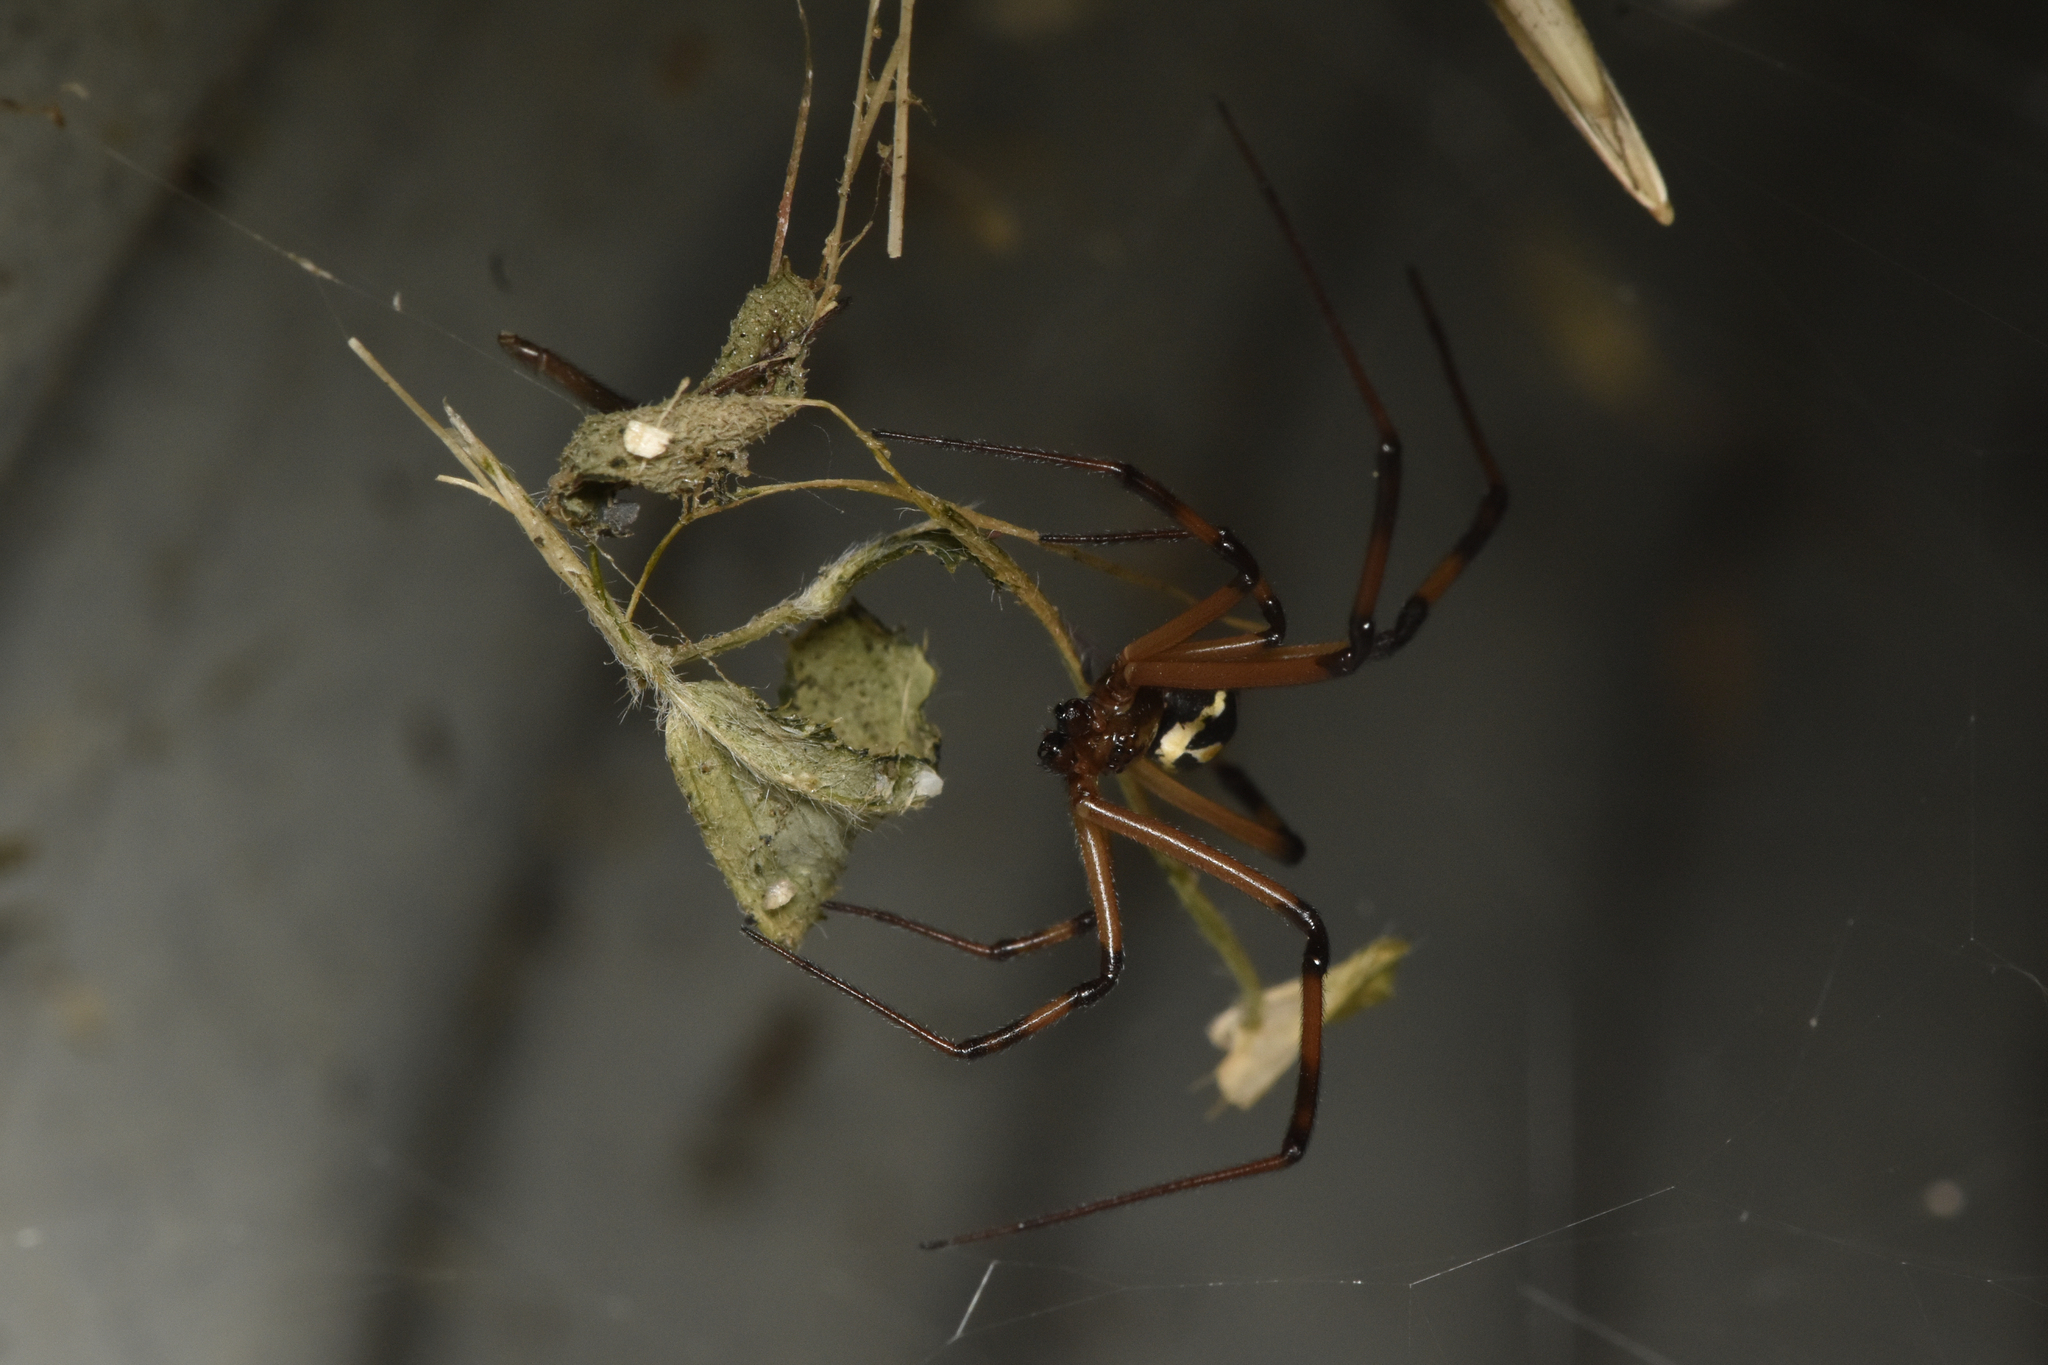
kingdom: Animalia
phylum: Arthropoda
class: Arachnida
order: Araneae
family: Theridiidae
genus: Latrodectus
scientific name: Latrodectus hesperus
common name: Western black widow
